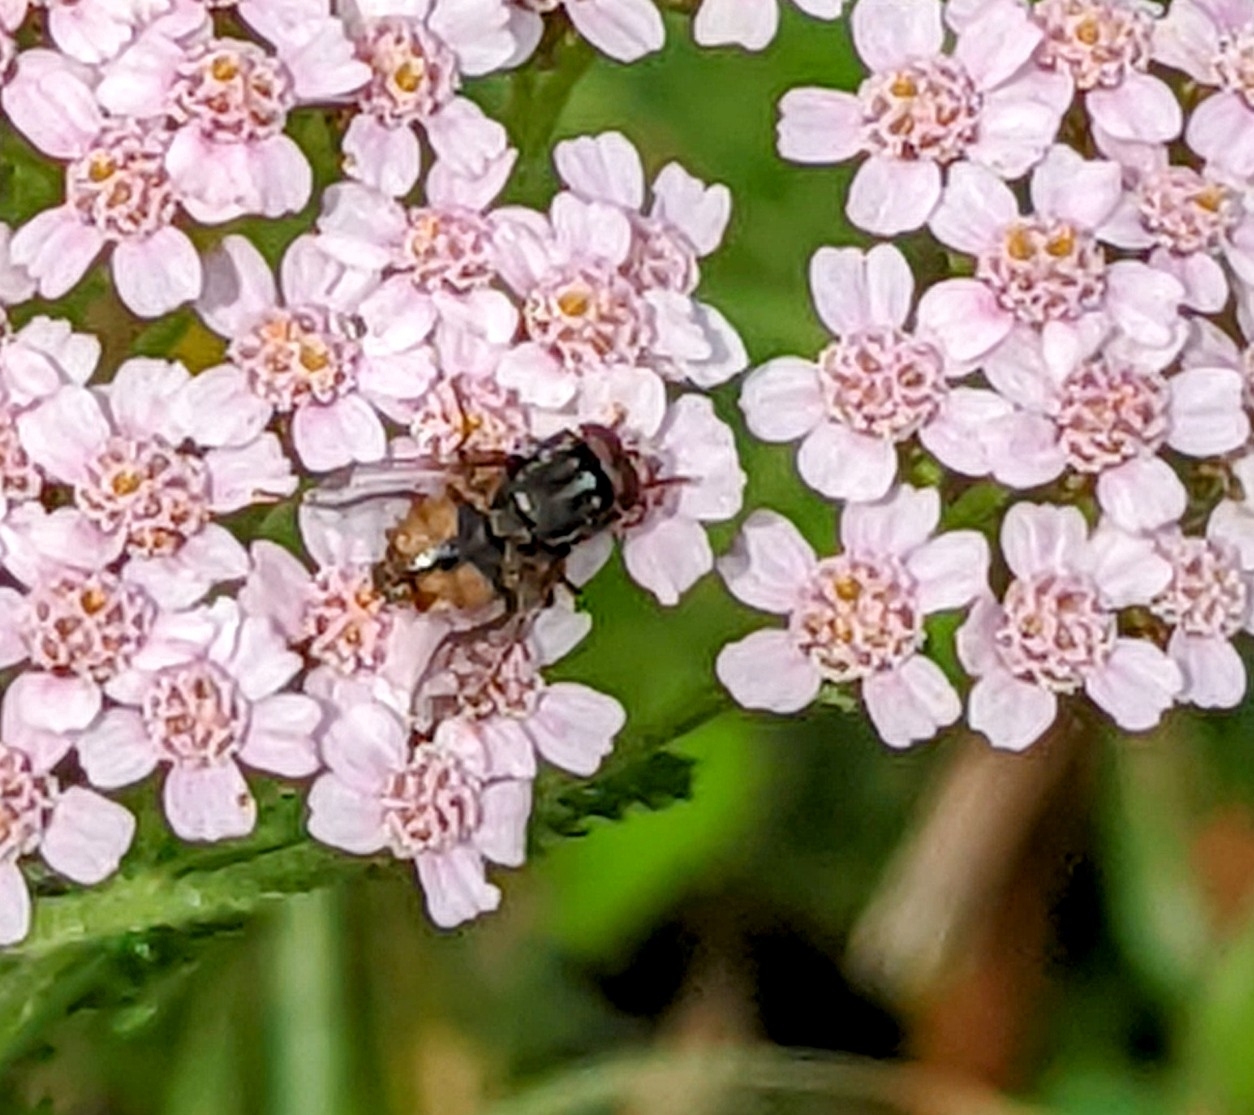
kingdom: Animalia
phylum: Arthropoda
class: Insecta
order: Diptera
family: Muscidae
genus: Musca
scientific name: Musca autumnalis
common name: Face fly
